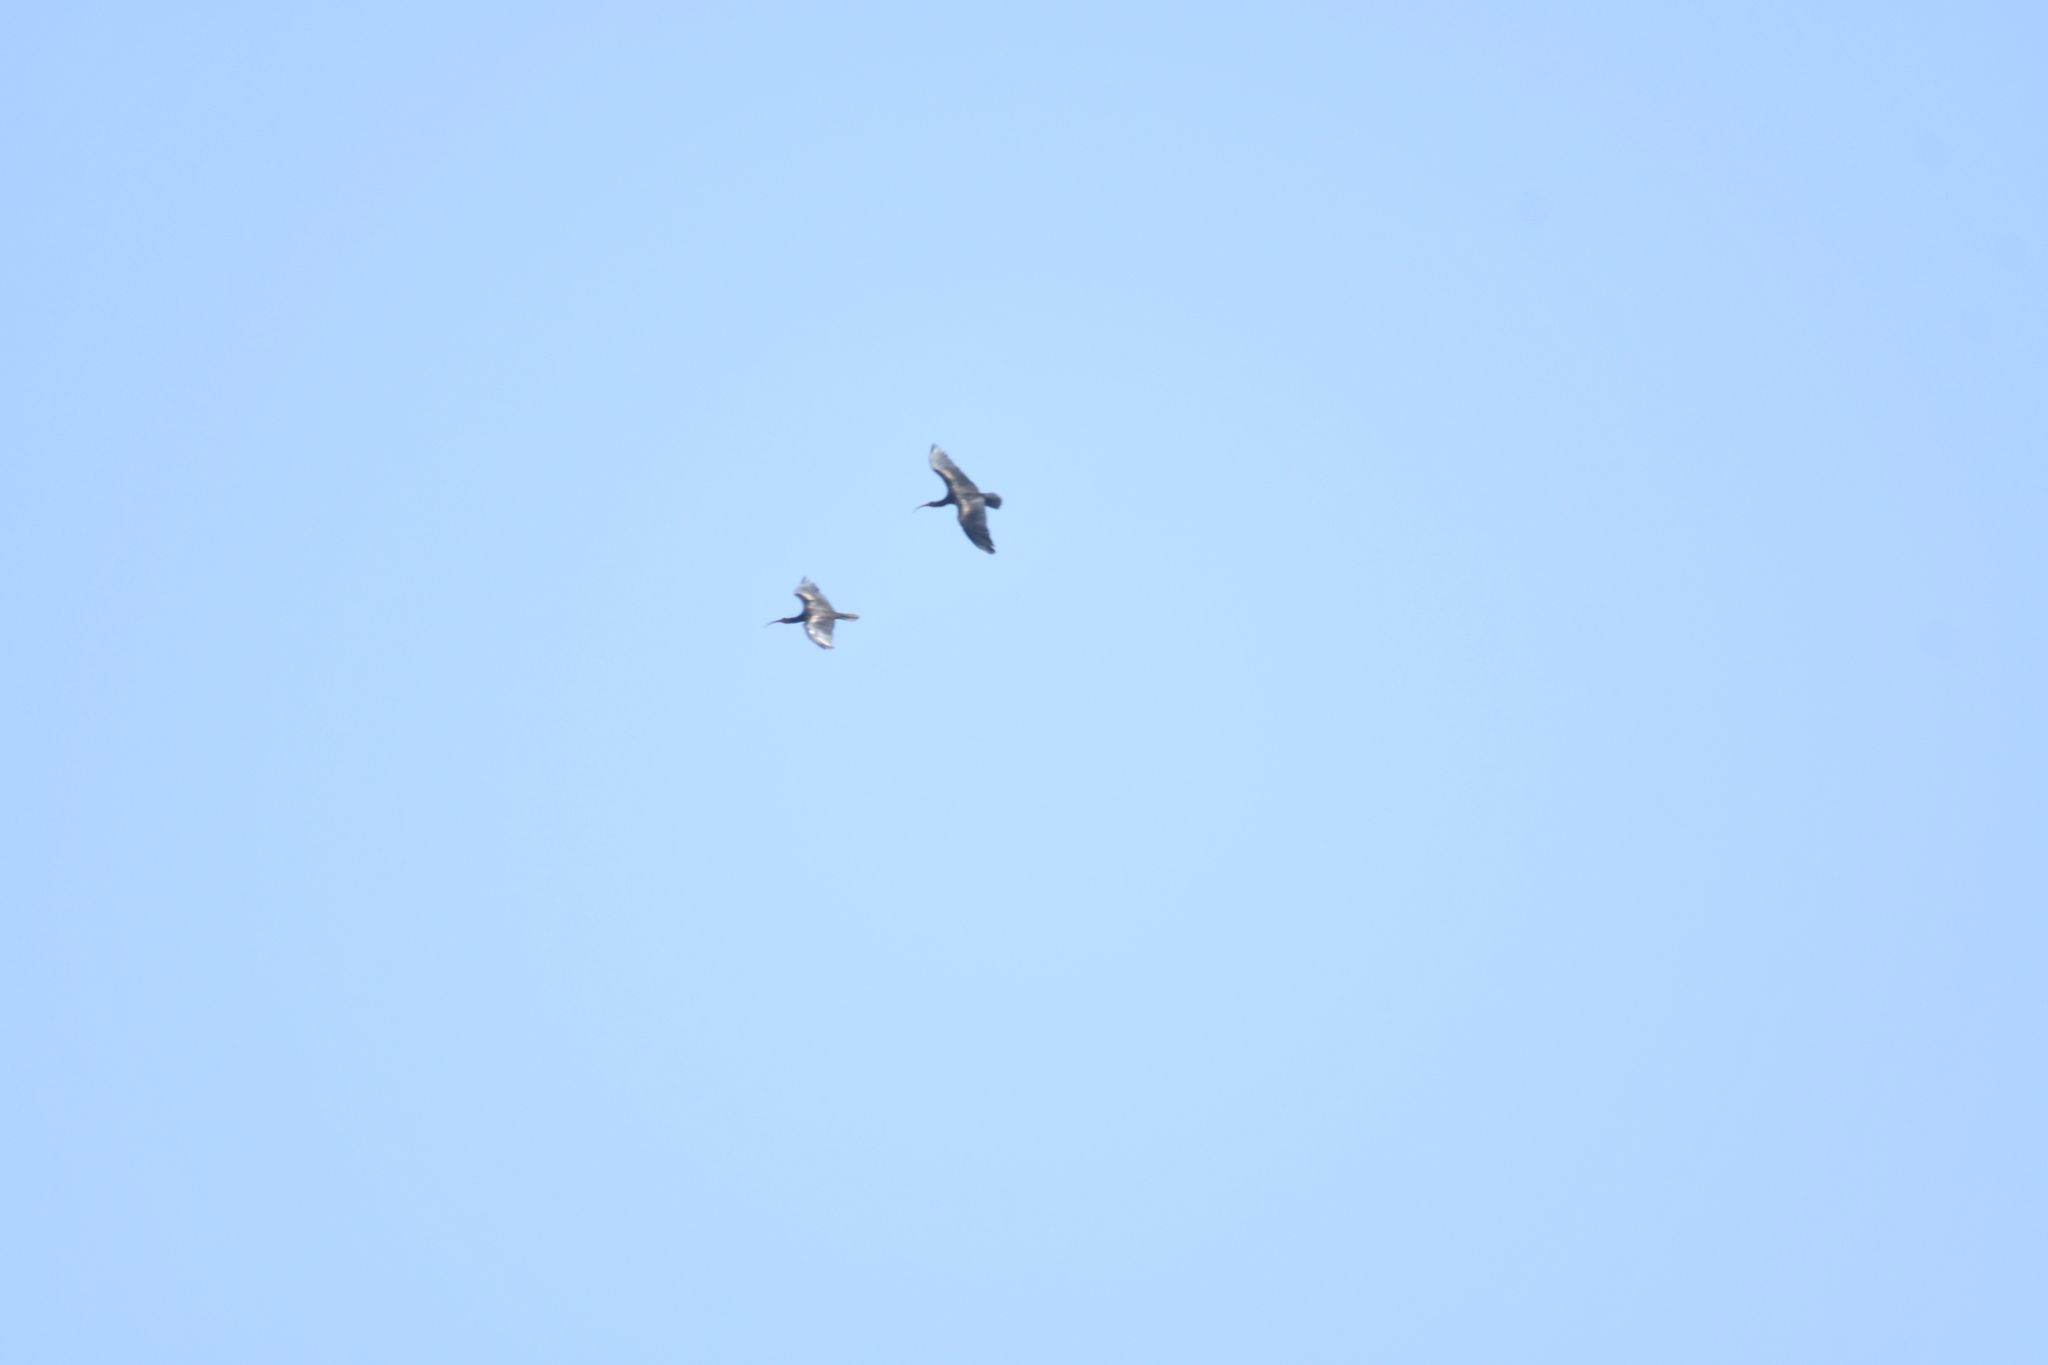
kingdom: Animalia
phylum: Chordata
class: Aves
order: Pelecaniformes
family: Threskiornithidae
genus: Geronticus
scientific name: Geronticus eremita
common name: Northern bald ibis
